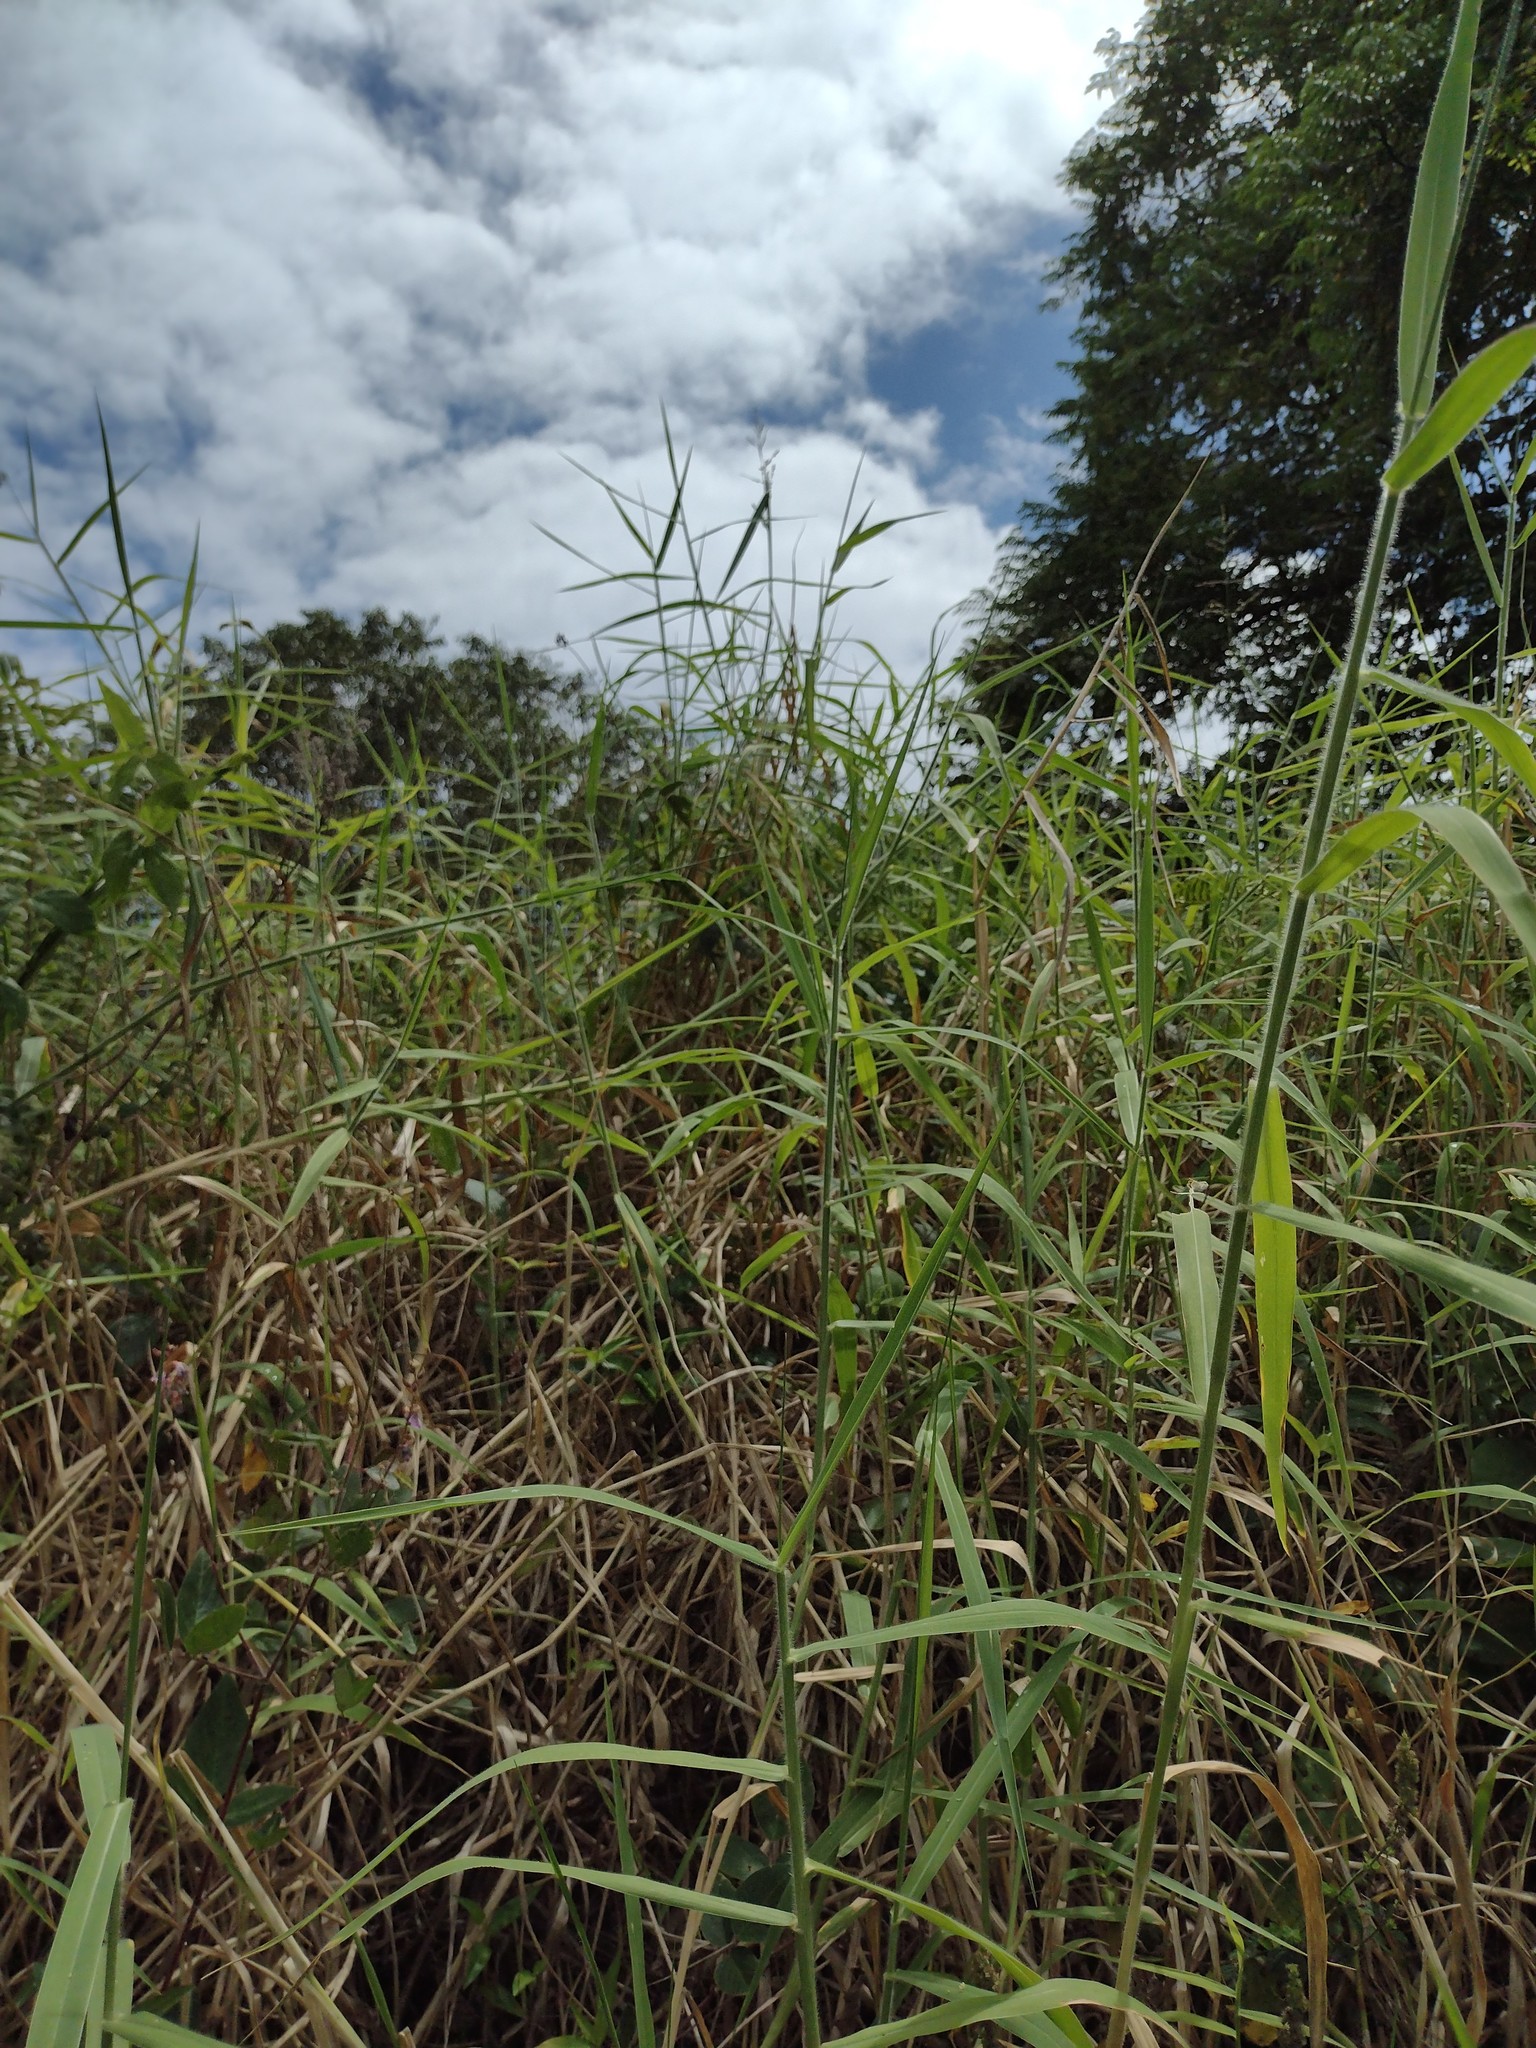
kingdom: Plantae
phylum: Tracheophyta
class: Liliopsida
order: Poales
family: Poaceae
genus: Urochloa
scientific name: Urochloa mutica
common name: Para grass
